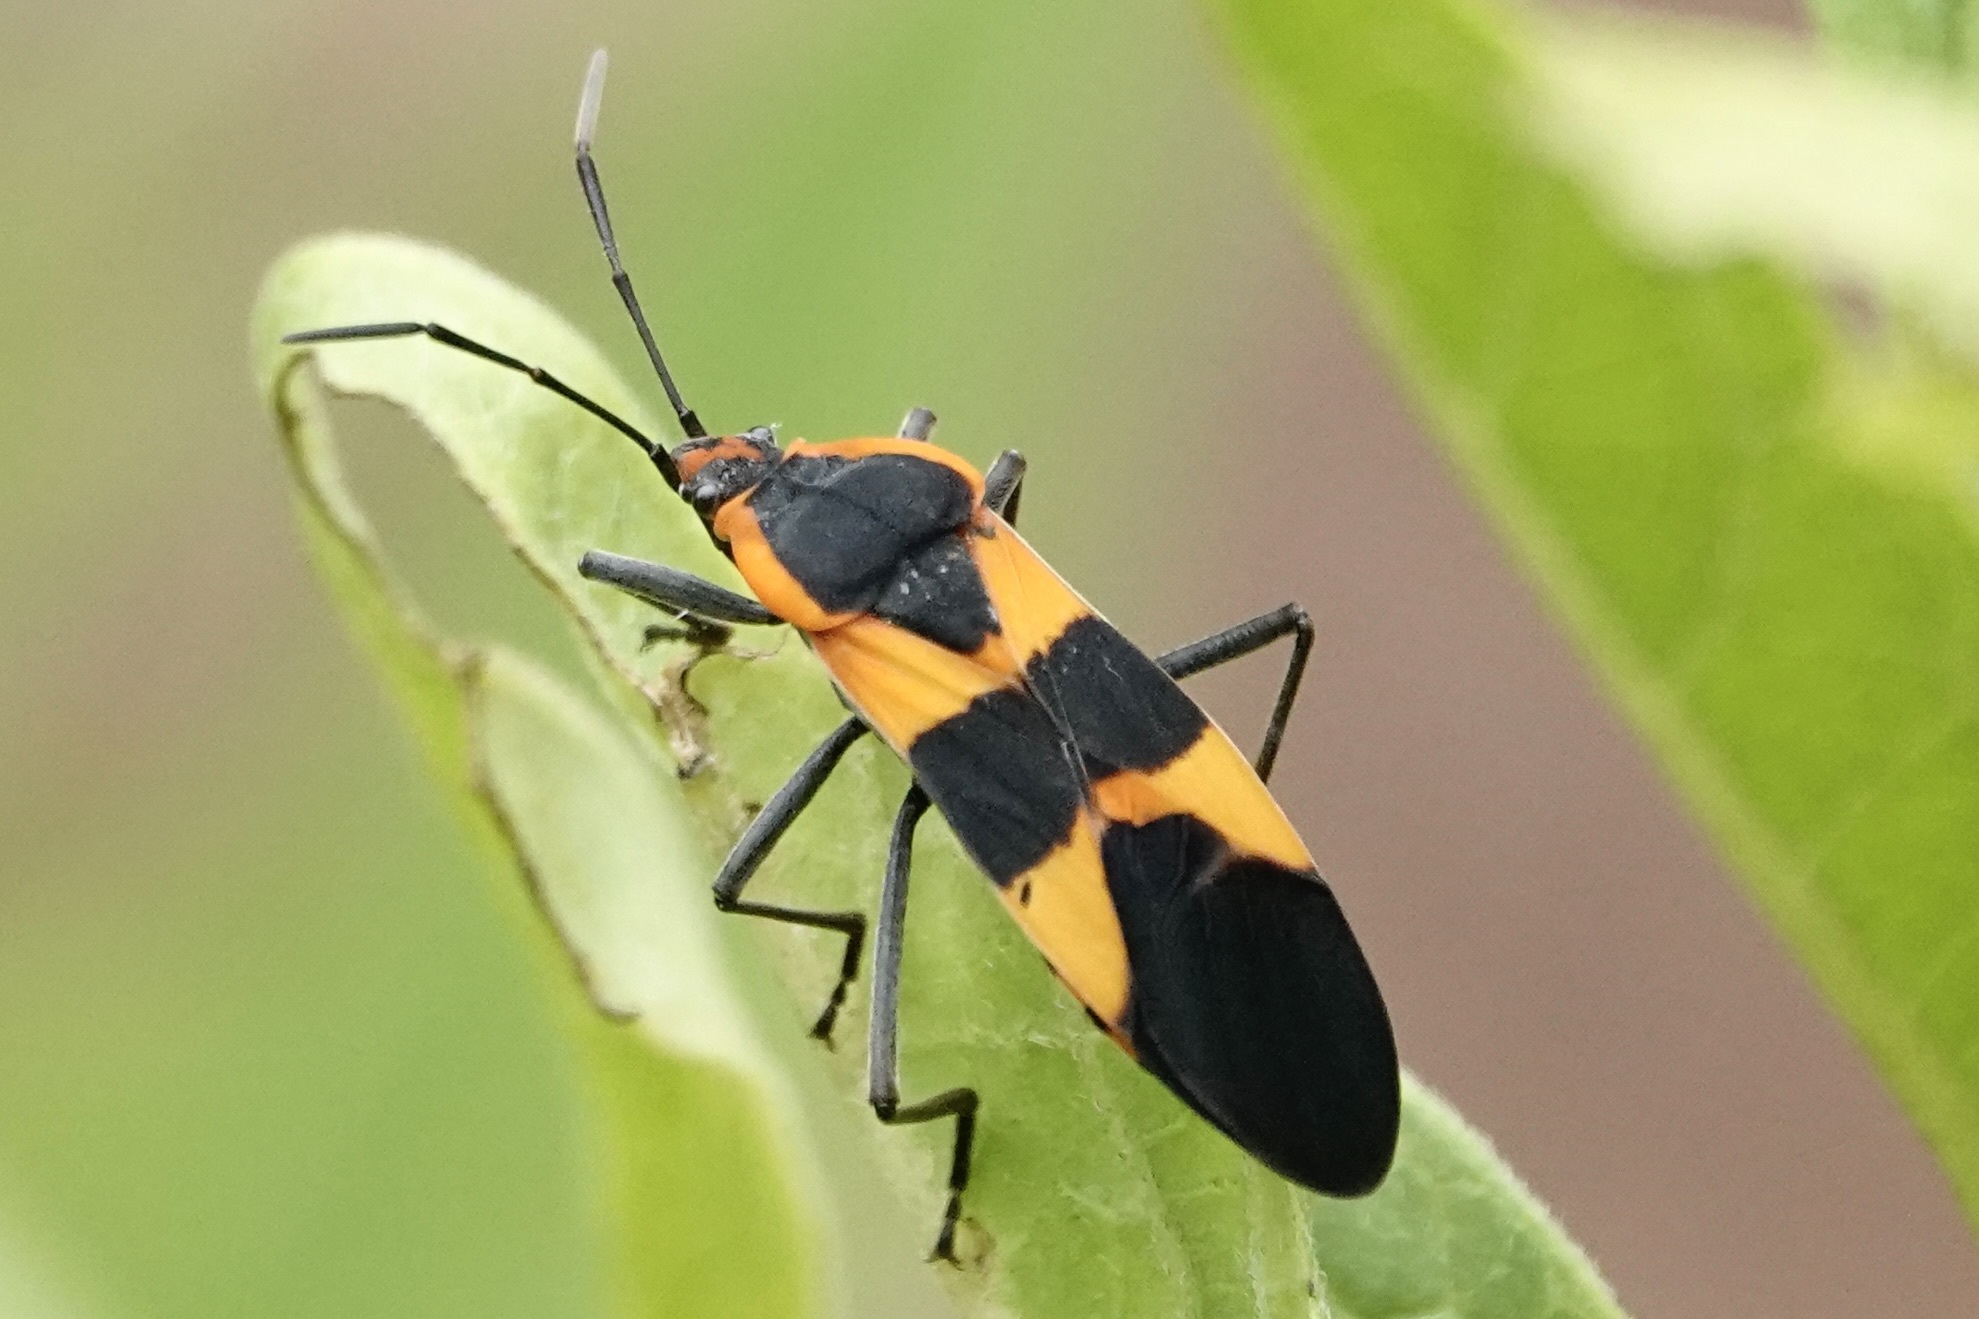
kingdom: Animalia
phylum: Arthropoda
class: Insecta
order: Hemiptera
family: Lygaeidae
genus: Oncopeltus
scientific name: Oncopeltus fasciatus
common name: Large milkweed bug
